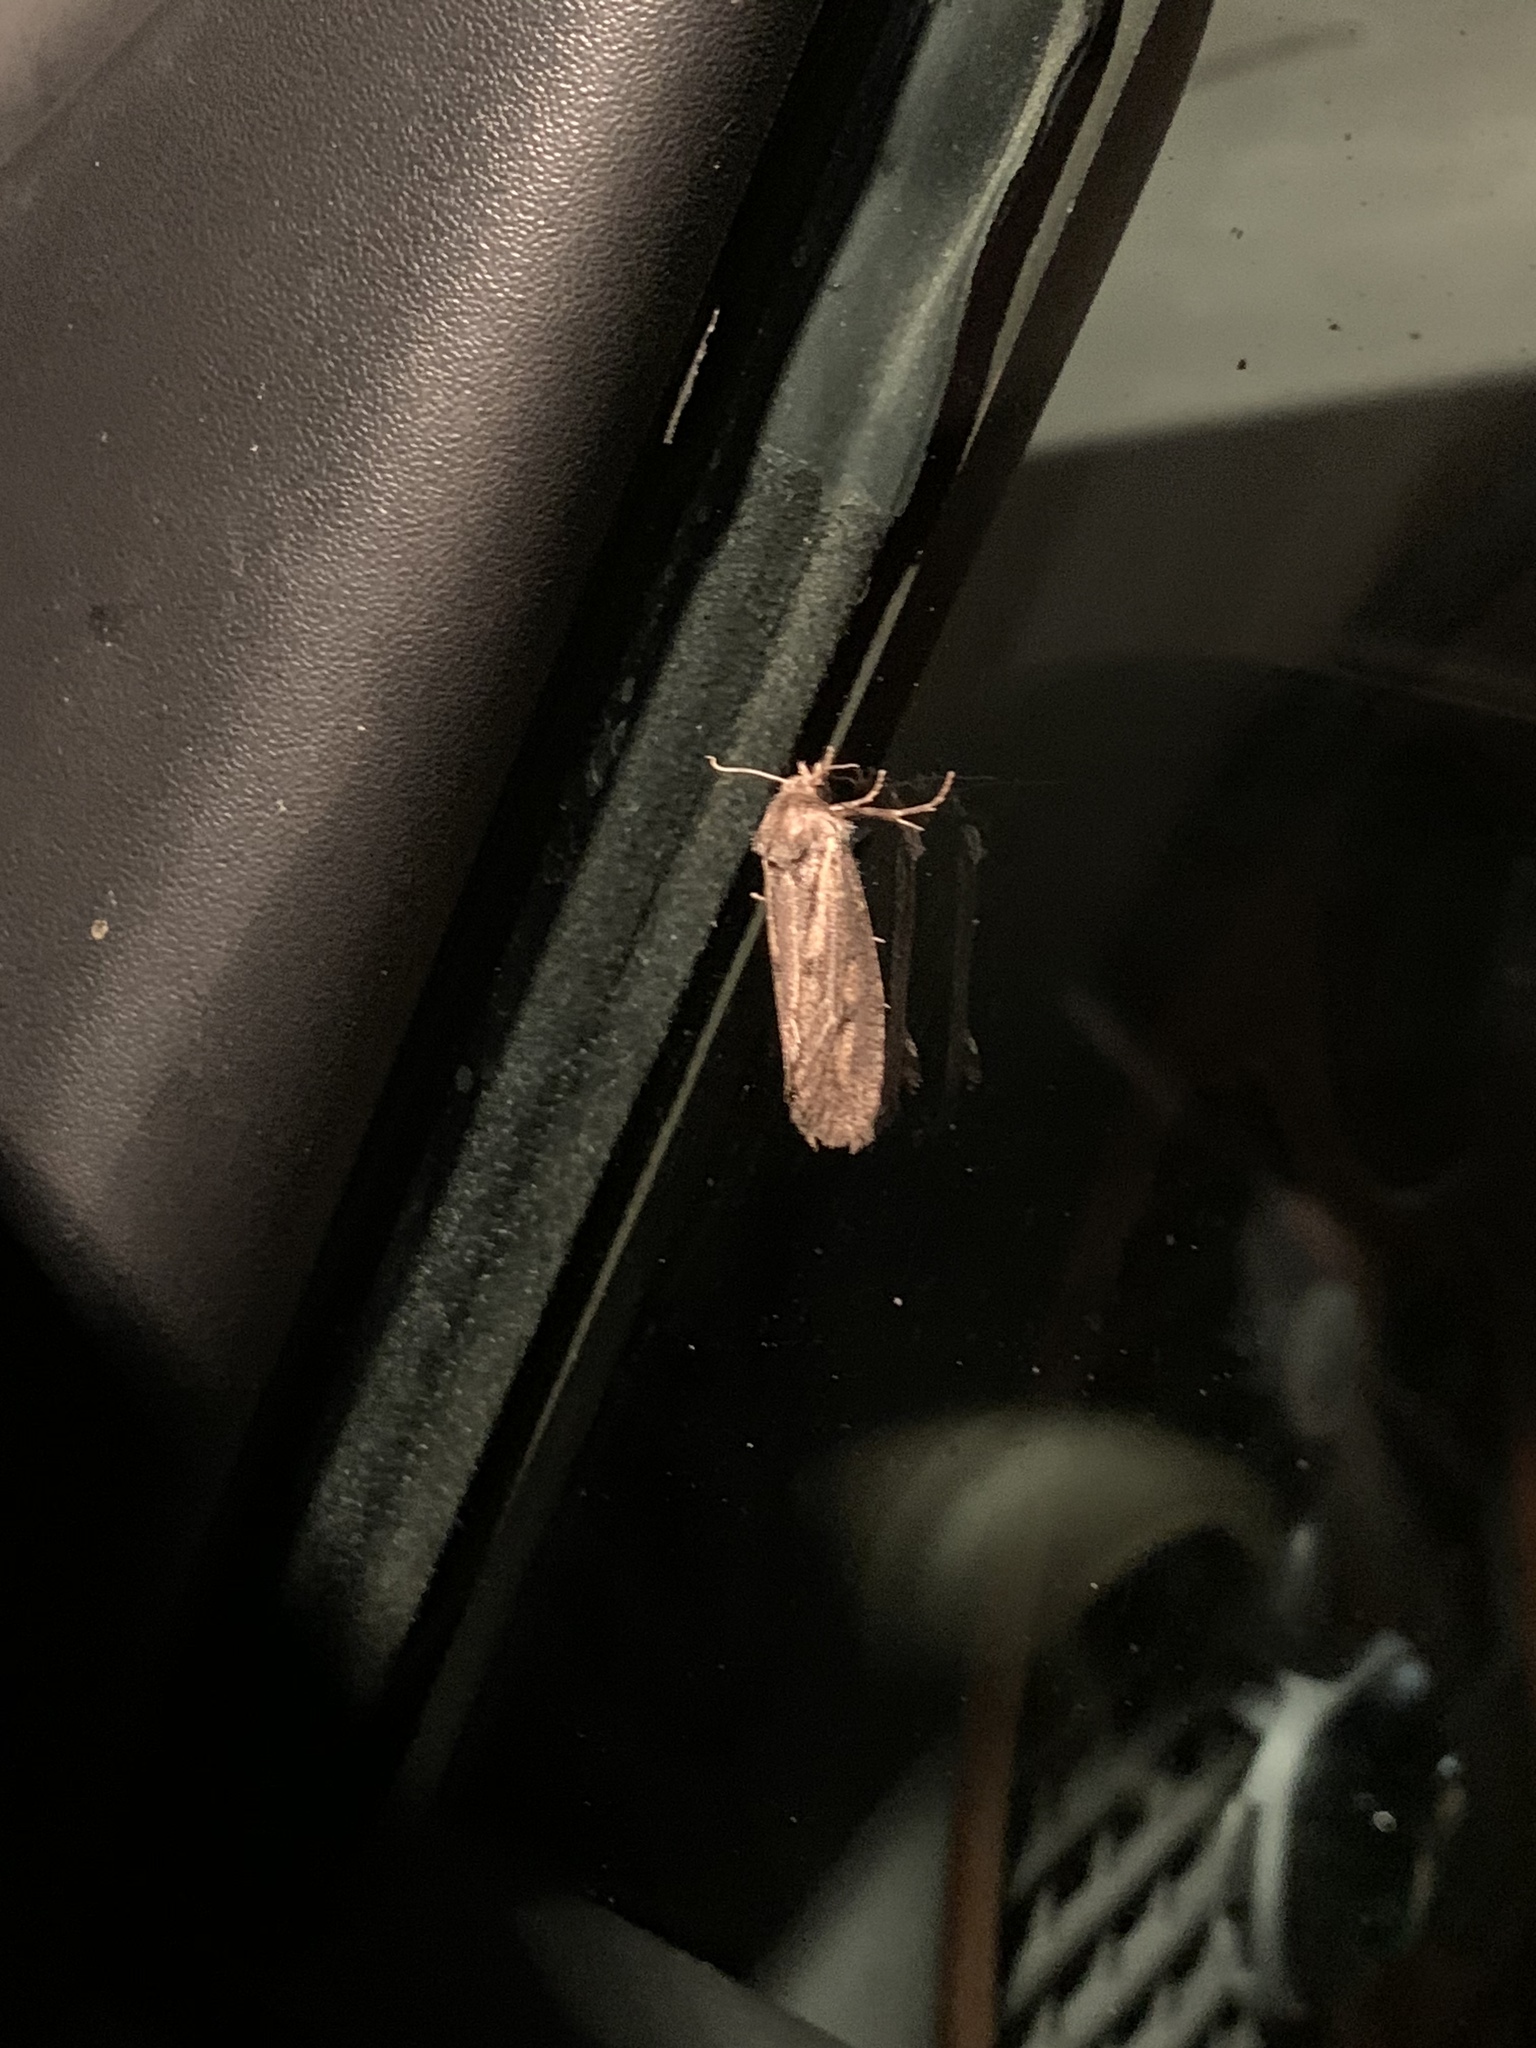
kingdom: Animalia
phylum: Arthropoda
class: Insecta
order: Lepidoptera
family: Tineidae
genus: Acrolophus
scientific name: Acrolophus popeanella
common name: Clemens' grass tubeworm moth
